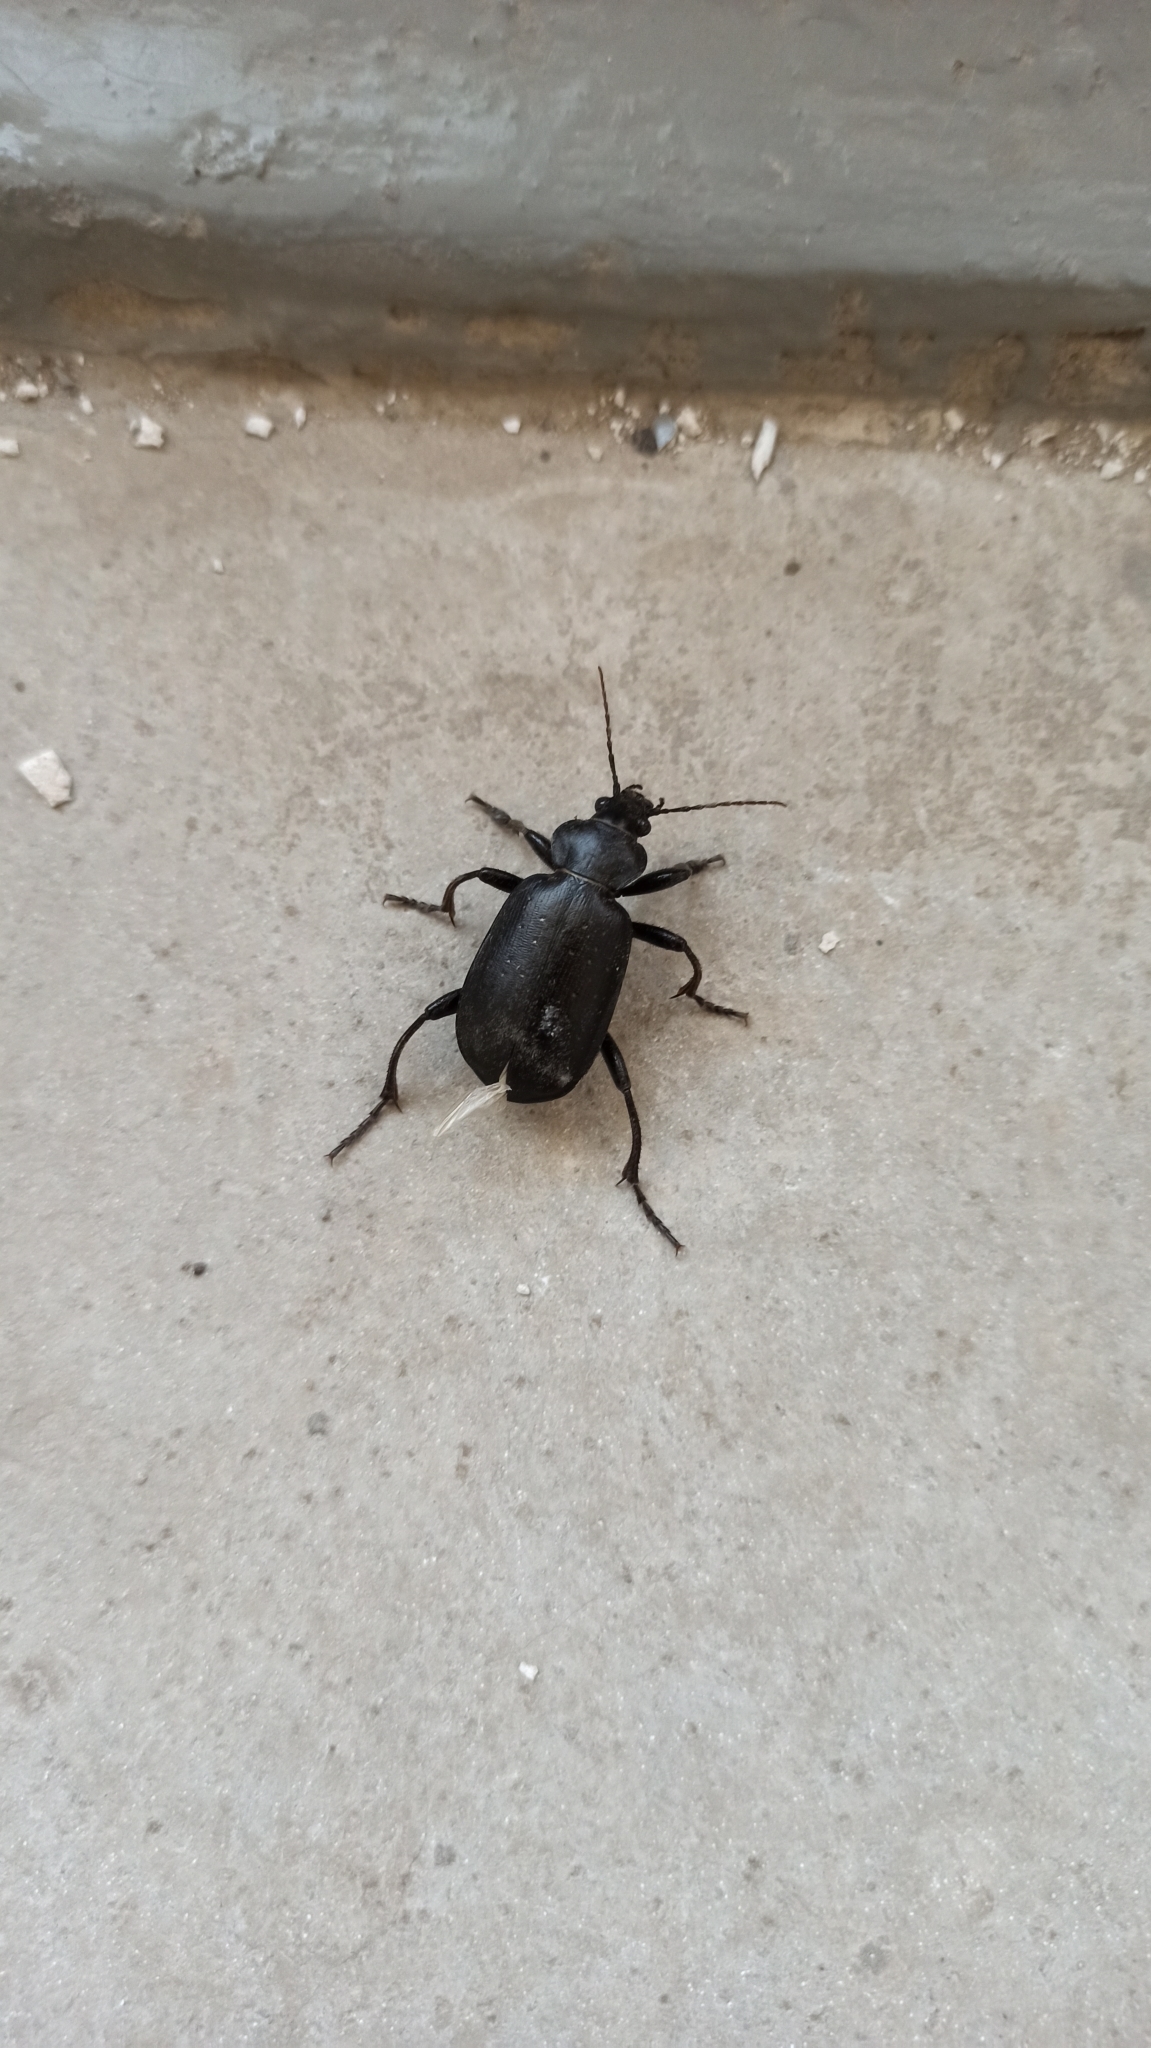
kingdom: Animalia
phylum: Arthropoda
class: Insecta
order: Coleoptera
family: Carabidae
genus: Calosoma
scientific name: Calosoma maderae
